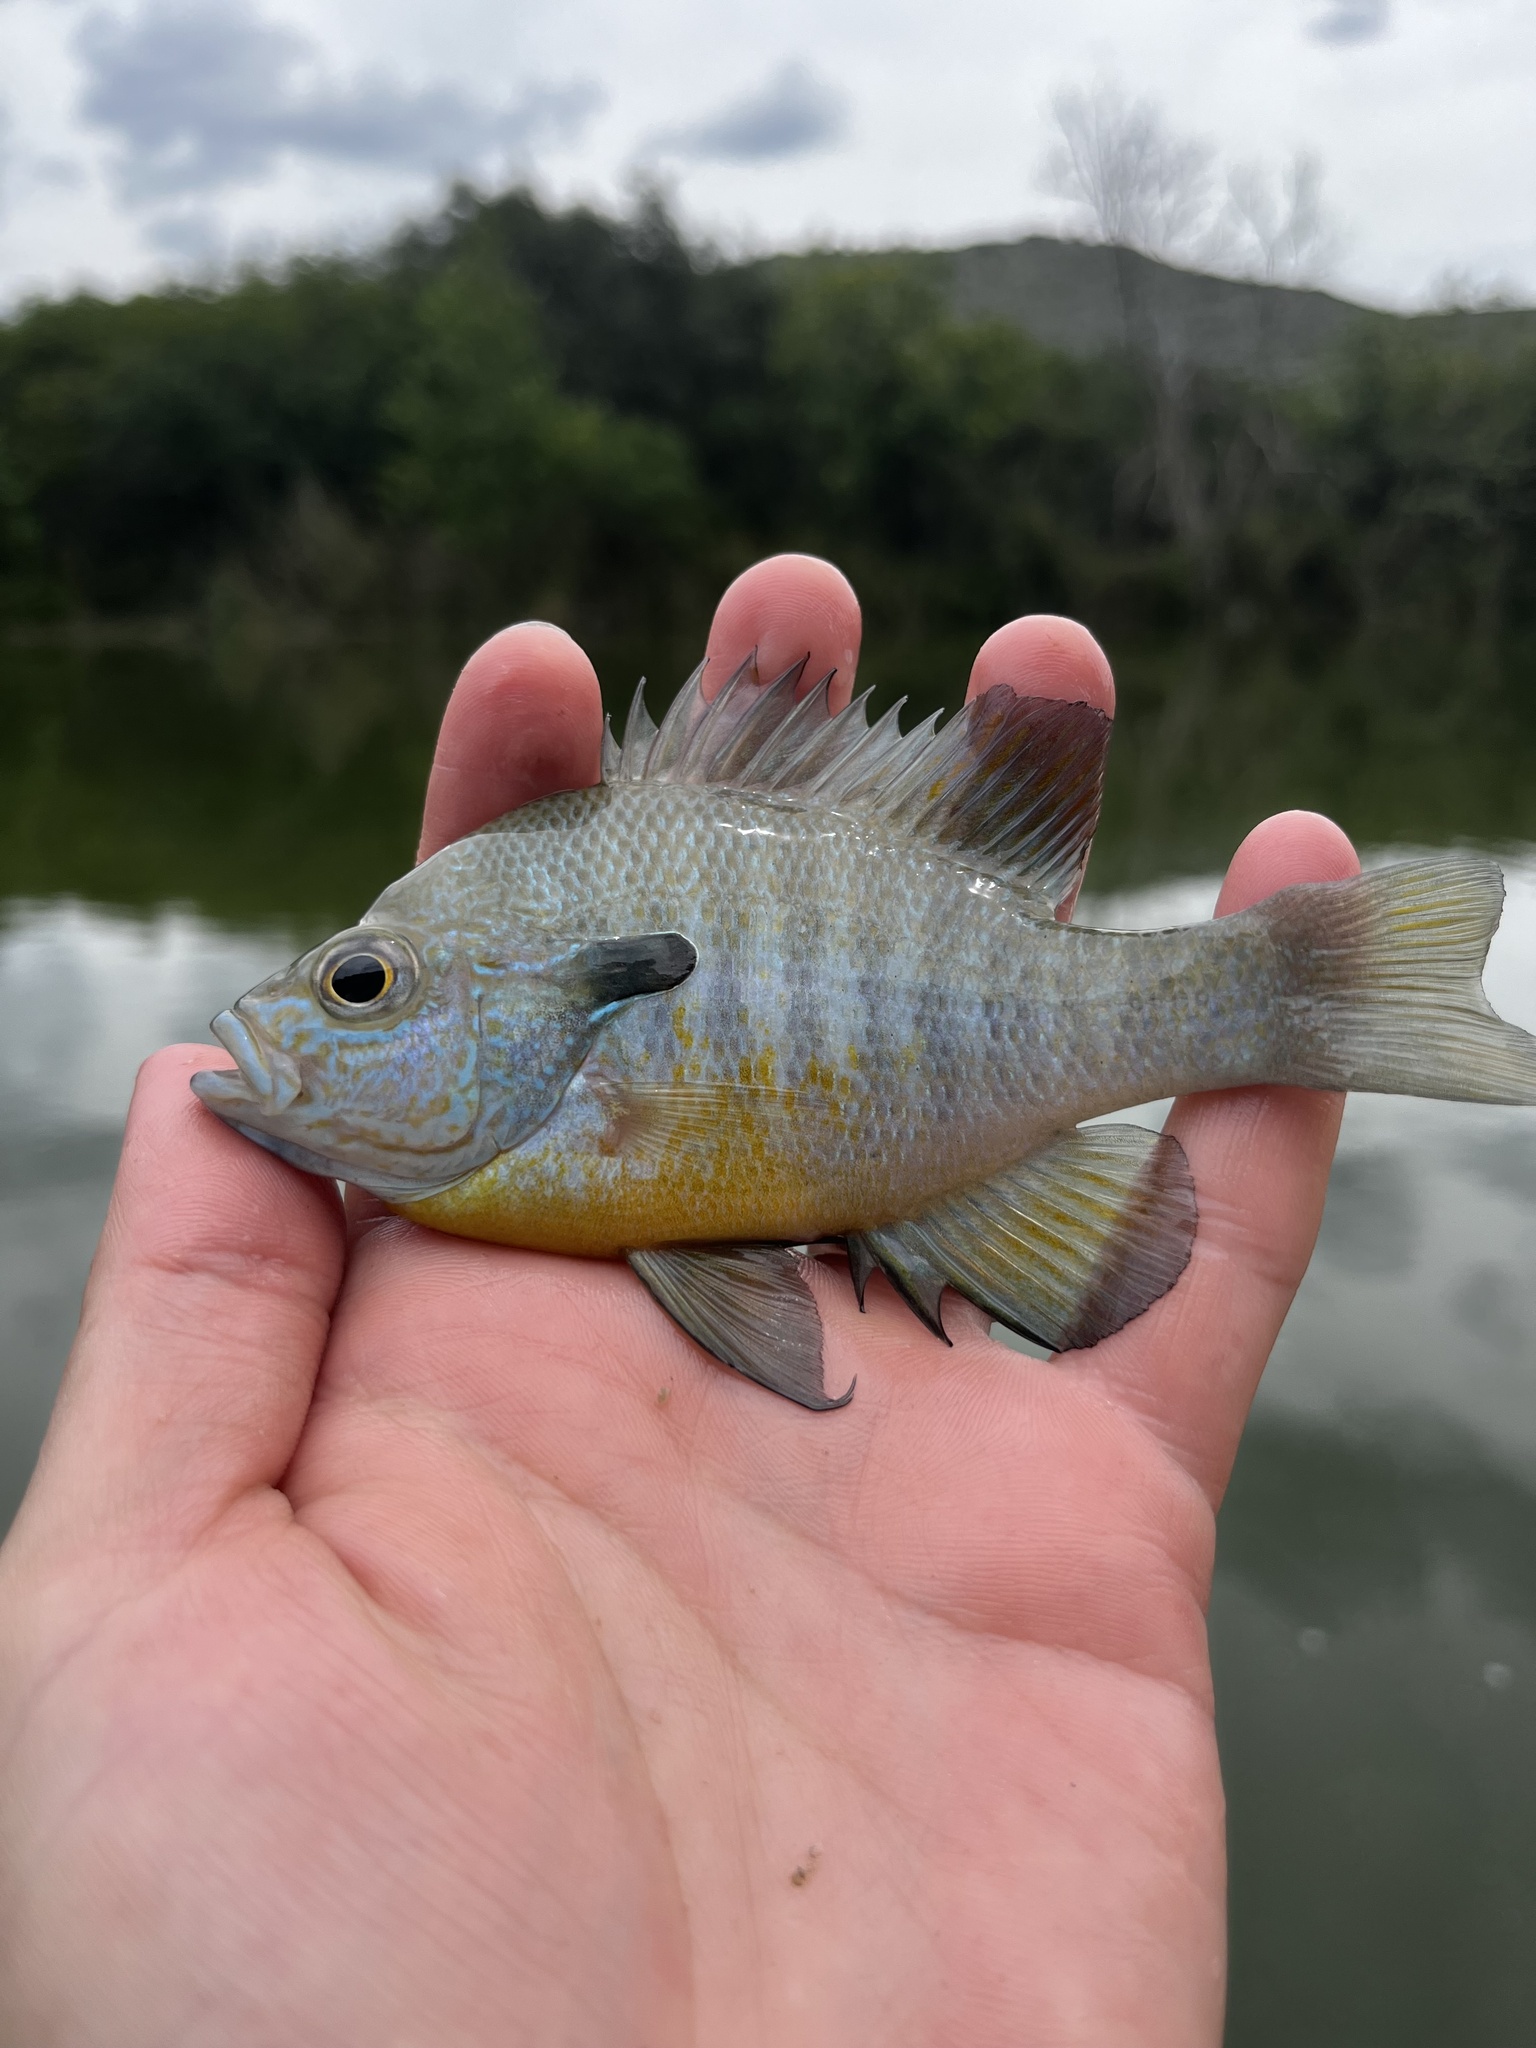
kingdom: Animalia
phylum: Chordata
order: Perciformes
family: Centrarchidae
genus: Lepomis
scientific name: Lepomis aquilensis
